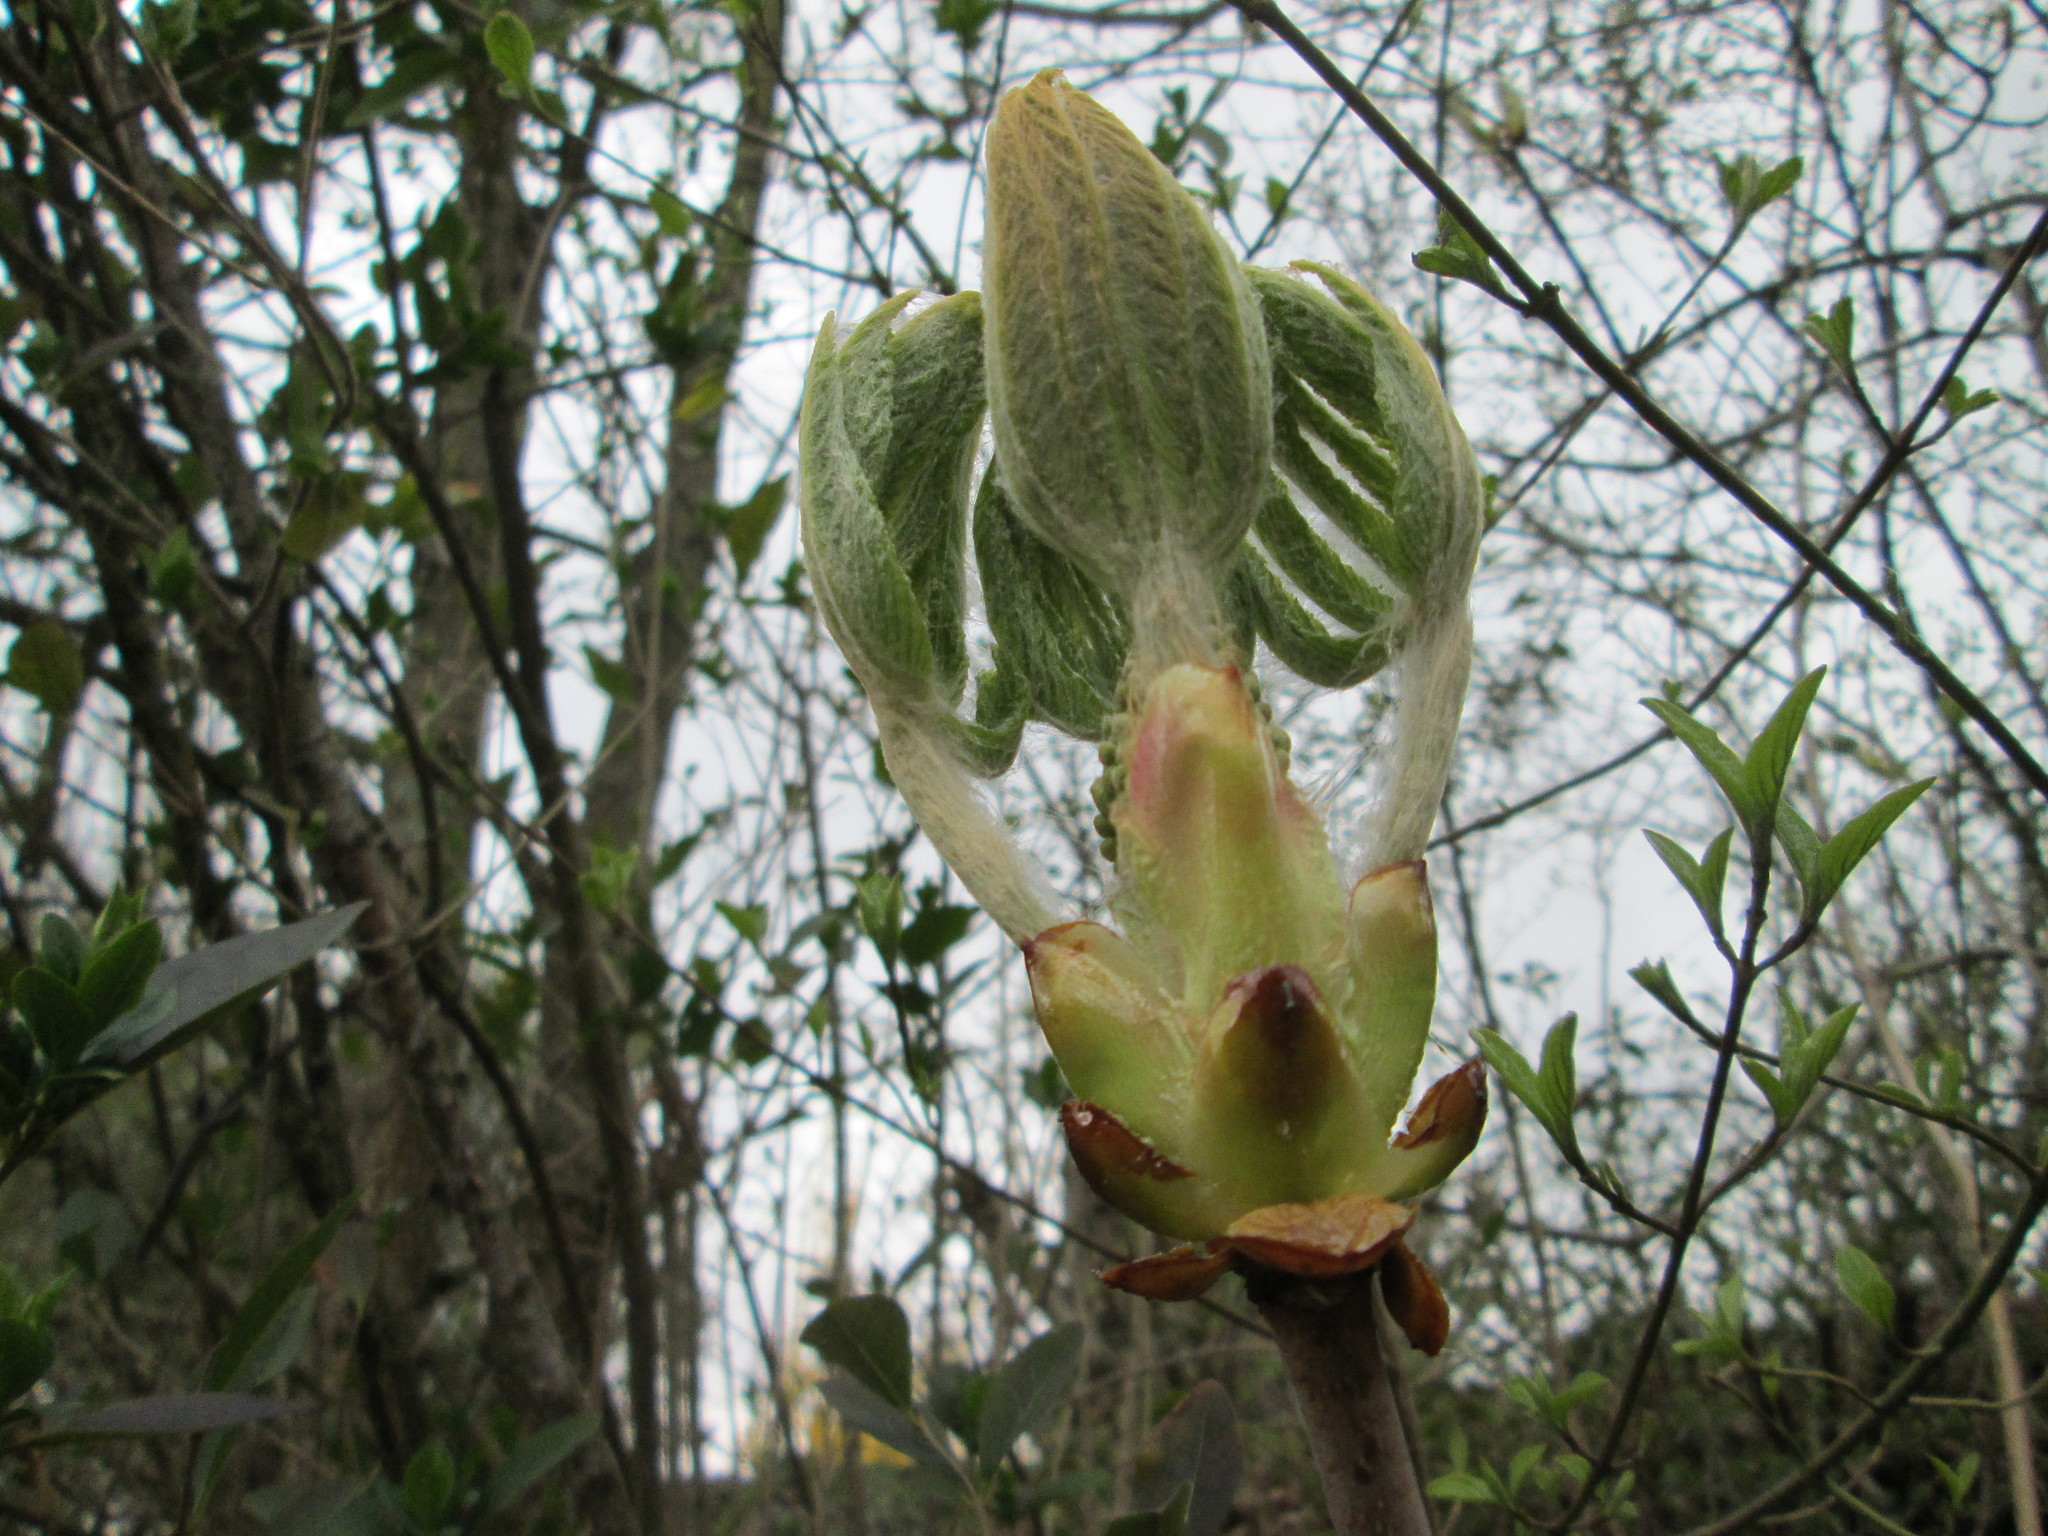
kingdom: Plantae
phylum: Tracheophyta
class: Magnoliopsida
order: Sapindales
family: Sapindaceae
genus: Aesculus
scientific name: Aesculus hippocastanum
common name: Horse-chestnut
